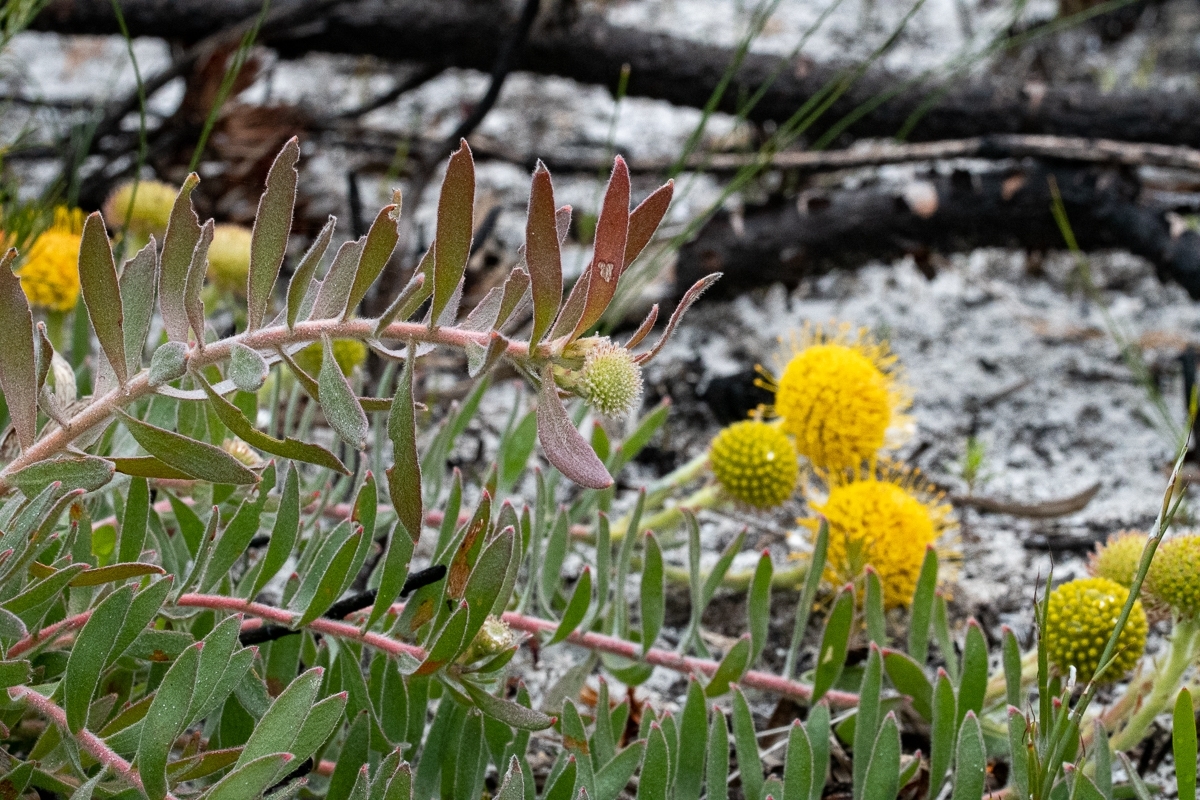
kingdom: Plantae
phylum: Tracheophyta
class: Magnoliopsida
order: Proteales
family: Proteaceae
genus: Leucospermum
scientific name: Leucospermum prostratum
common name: Yellow-trailing pincushion
